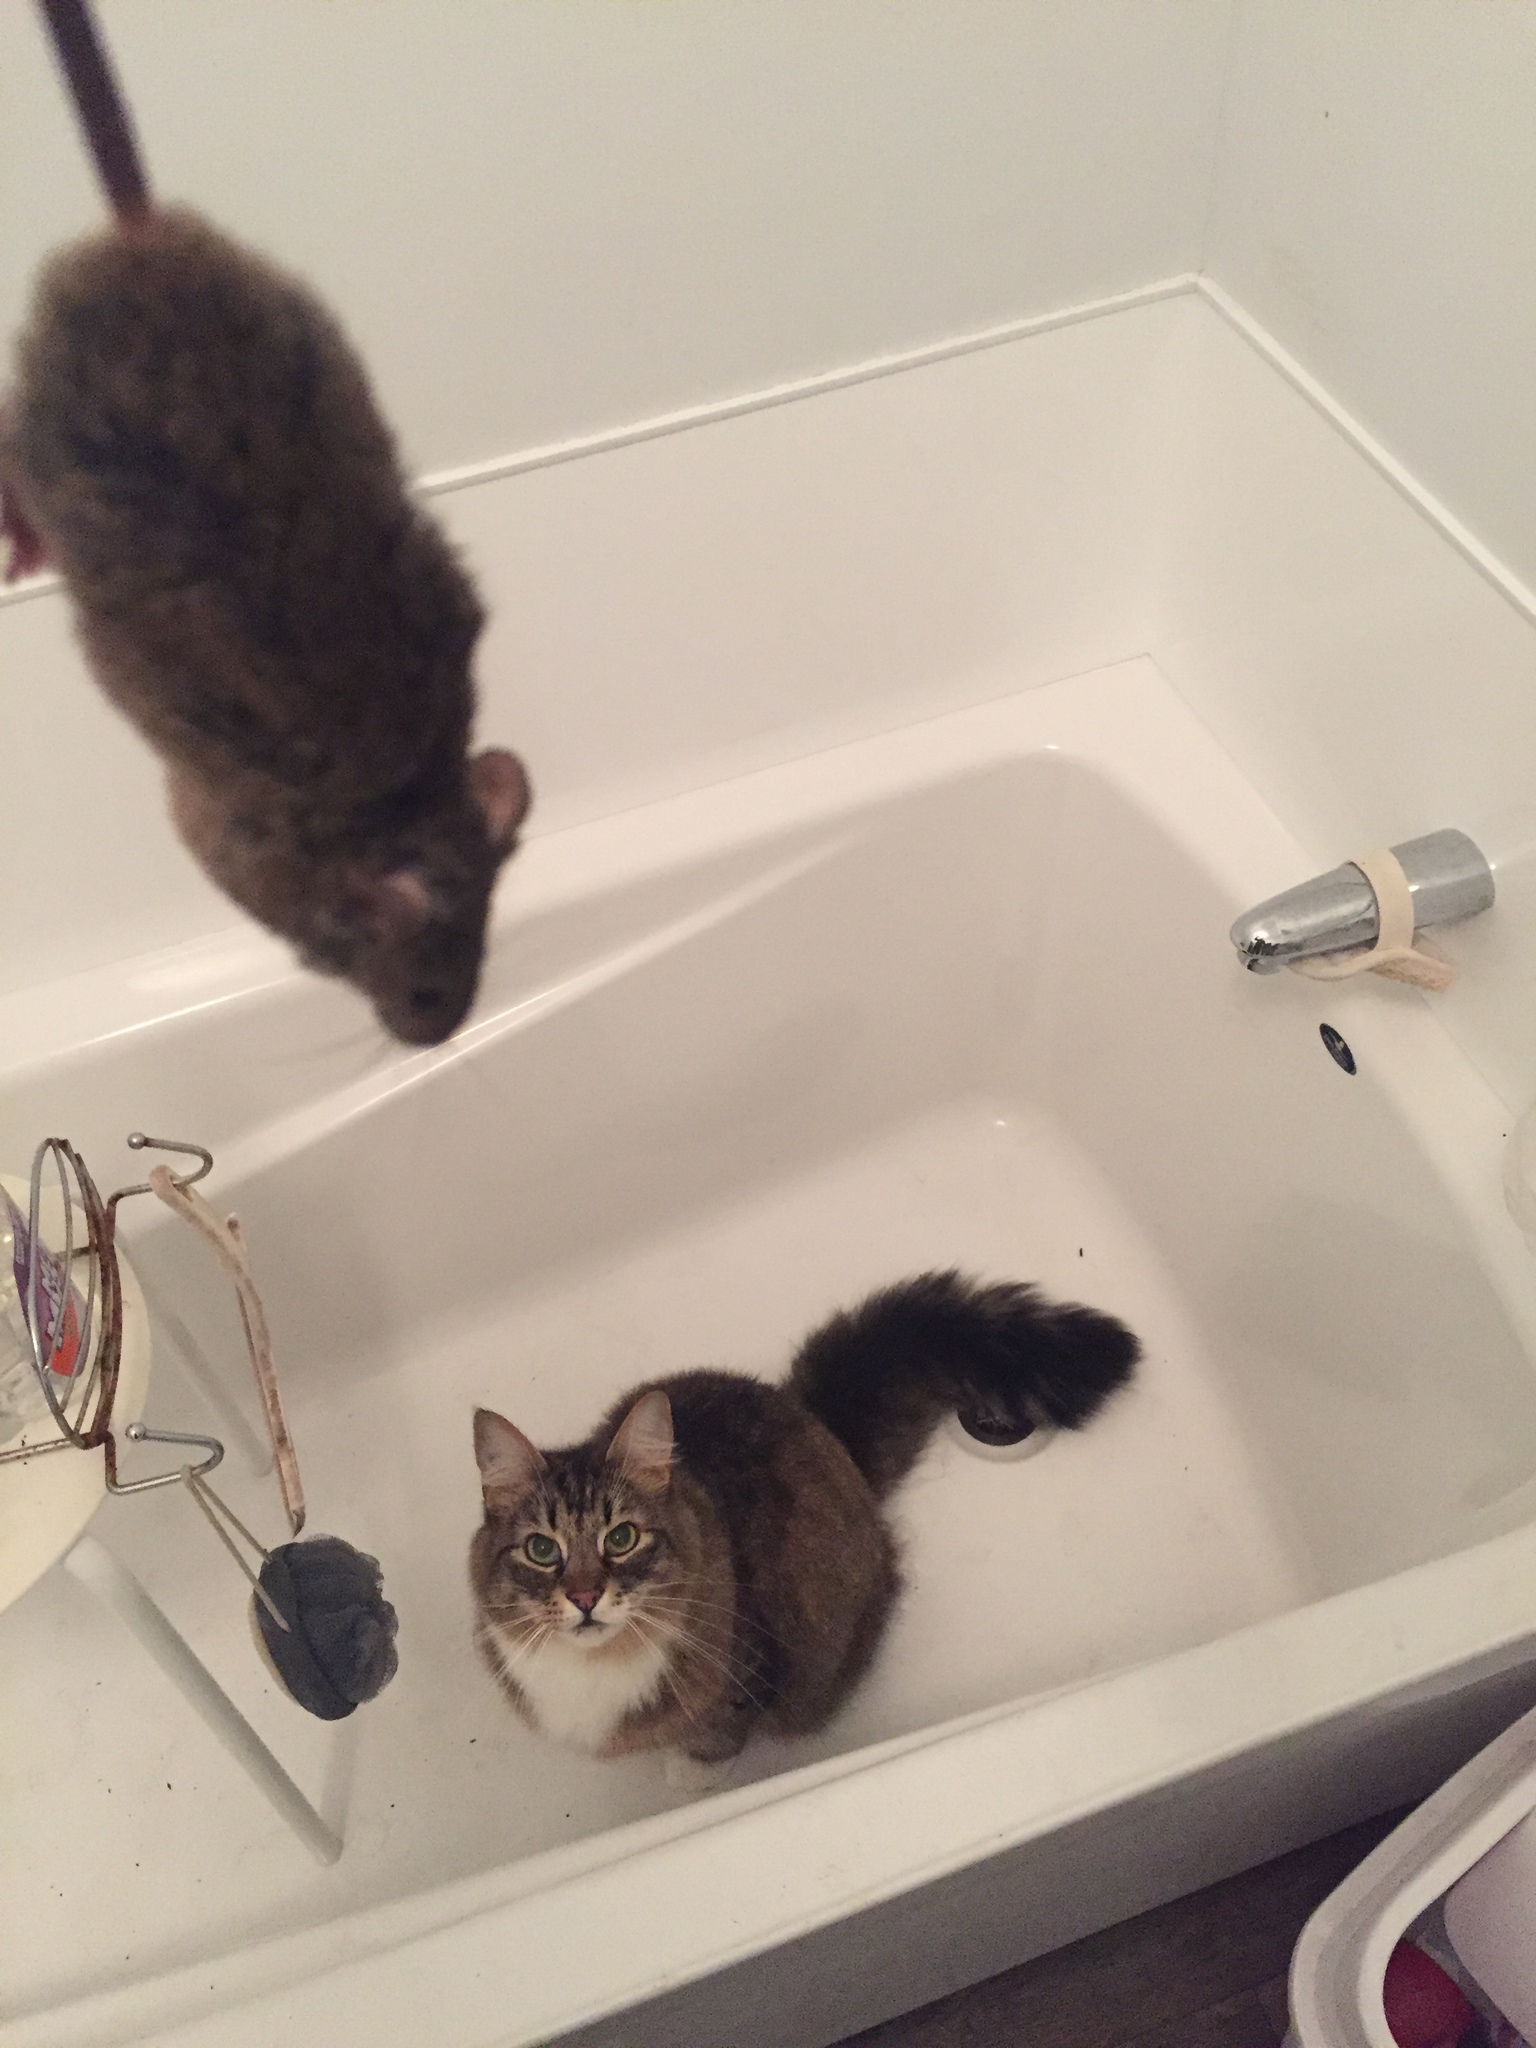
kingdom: Animalia
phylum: Chordata
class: Mammalia
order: Rodentia
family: Muridae
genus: Mus
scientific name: Mus musculus
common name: House mouse
